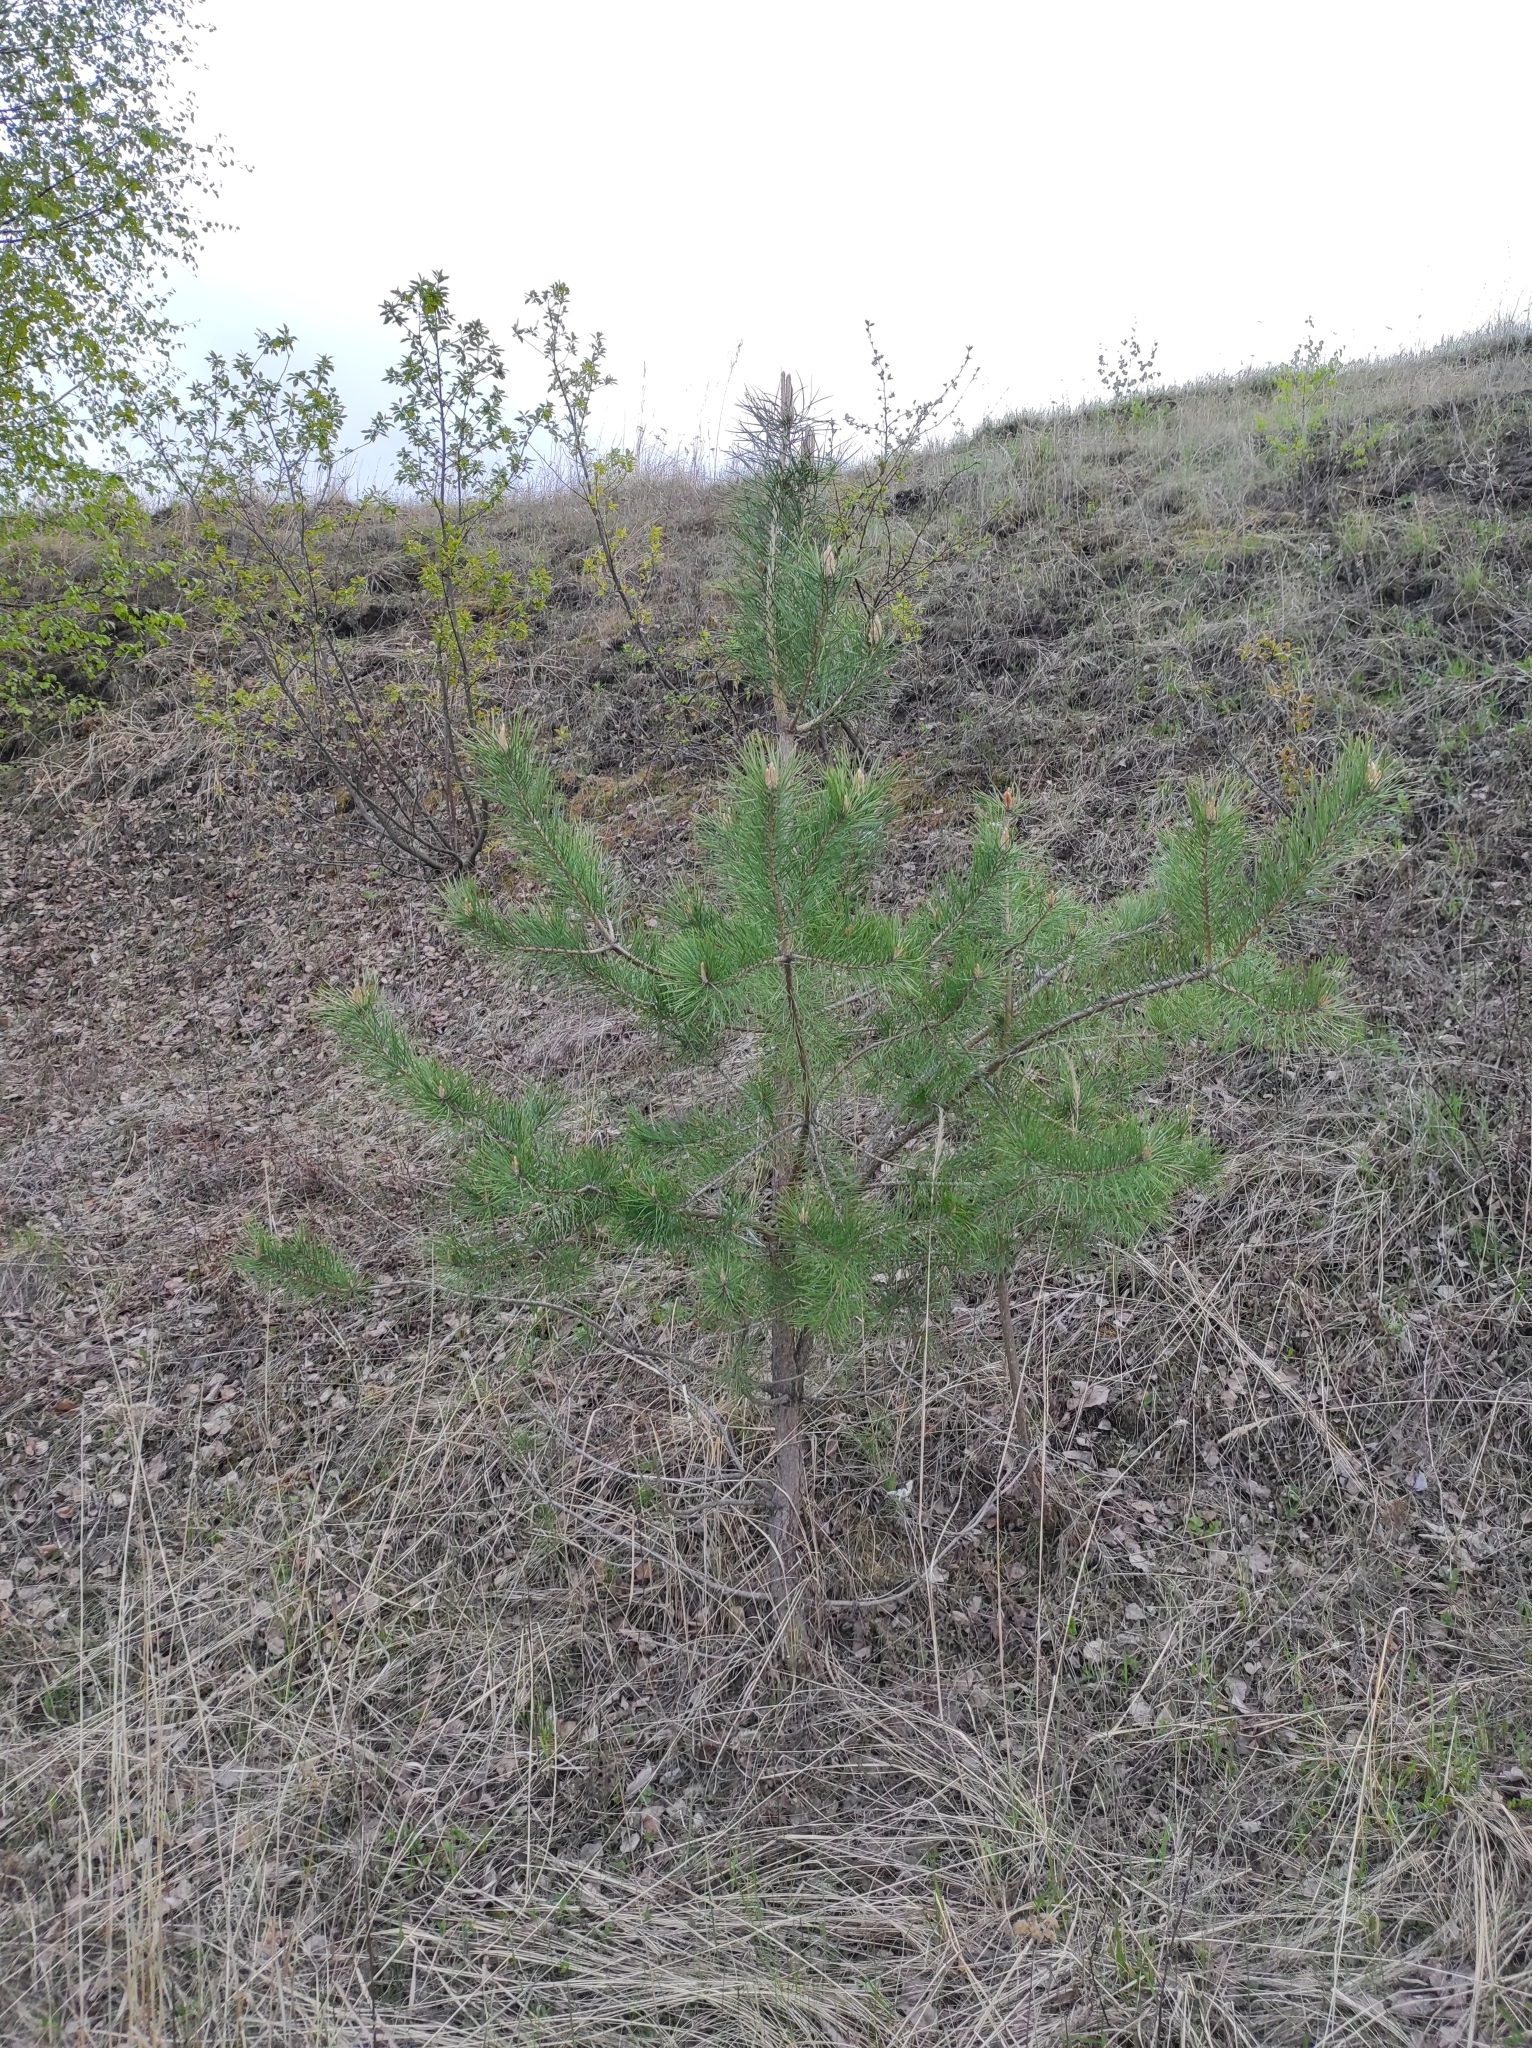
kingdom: Plantae
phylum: Tracheophyta
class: Pinopsida
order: Pinales
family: Pinaceae
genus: Pinus
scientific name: Pinus sylvestris
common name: Scots pine
